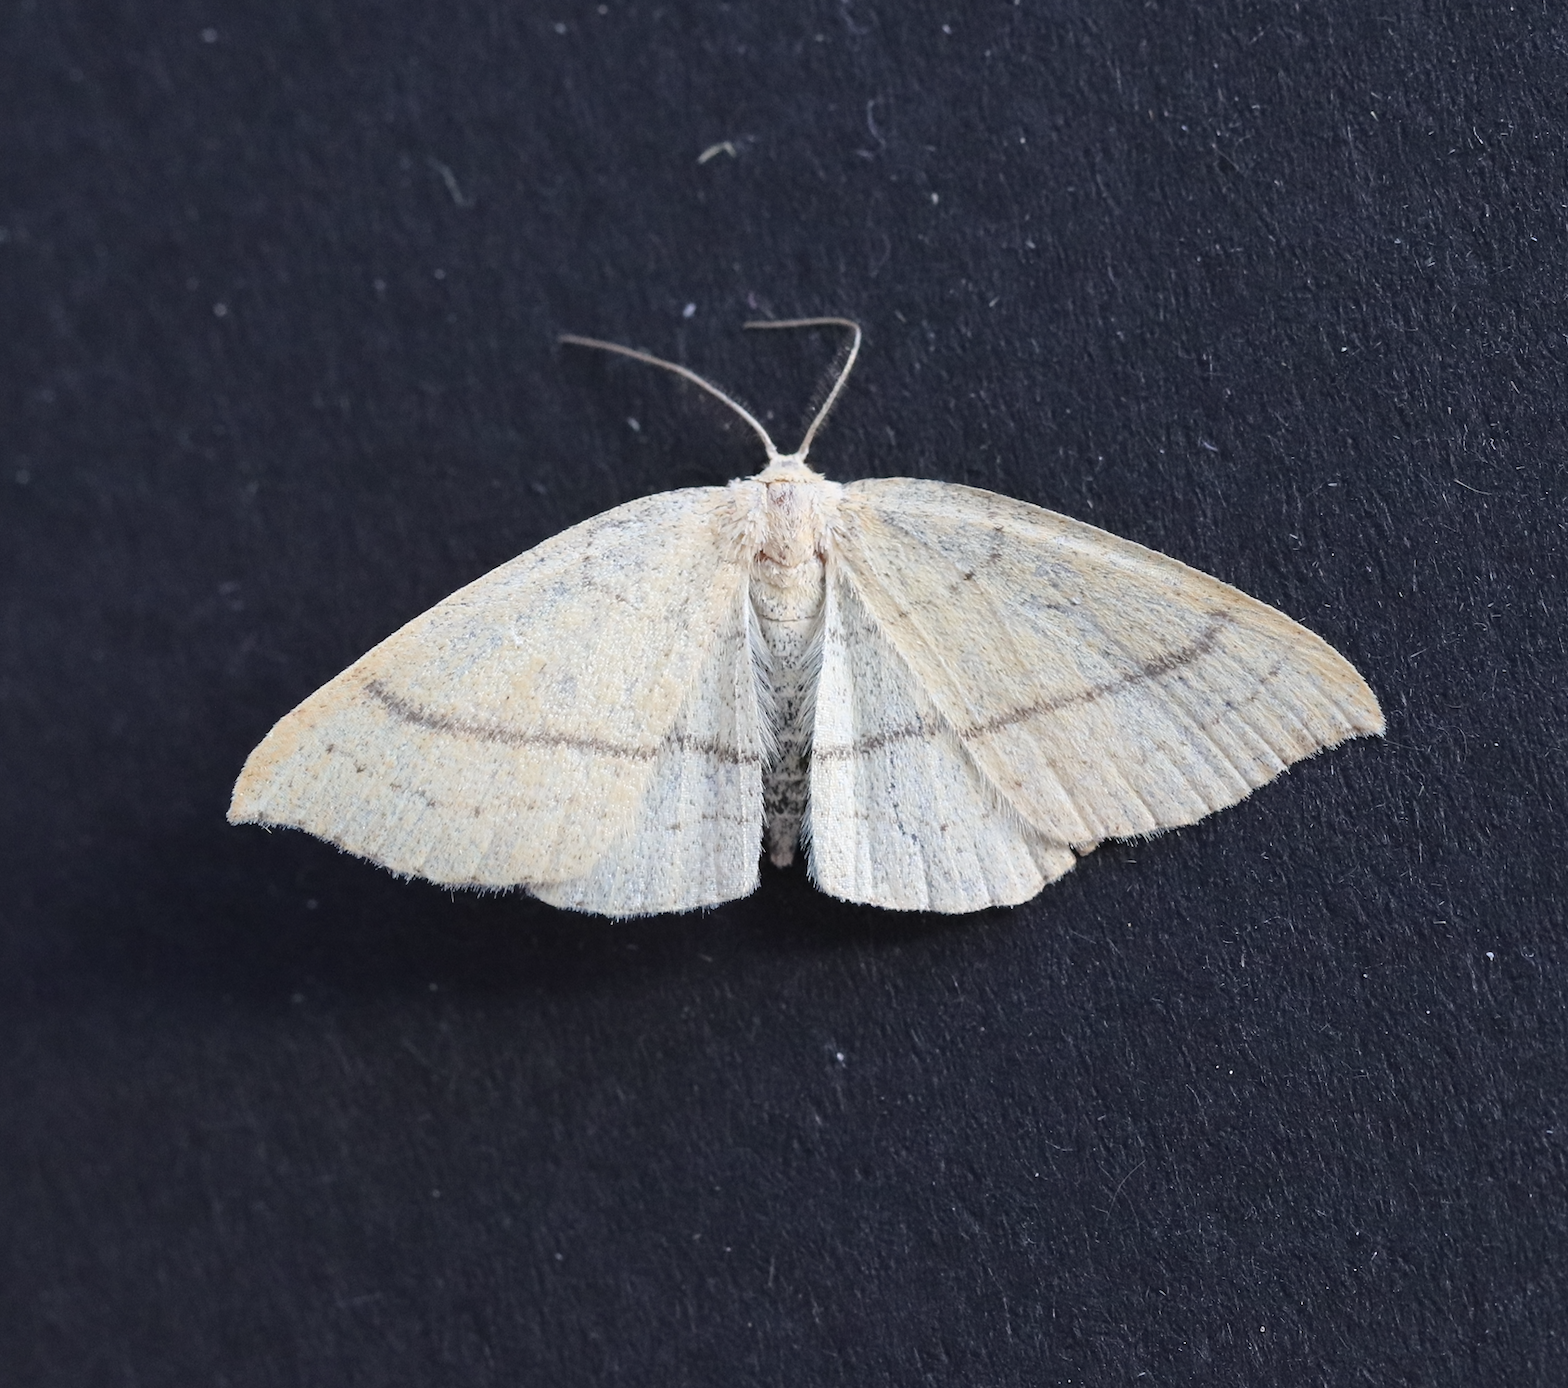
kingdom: Animalia
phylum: Arthropoda
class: Insecta
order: Lepidoptera
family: Geometridae
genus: Cyclophora
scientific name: Cyclophora linearia
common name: Clay triple-lines
